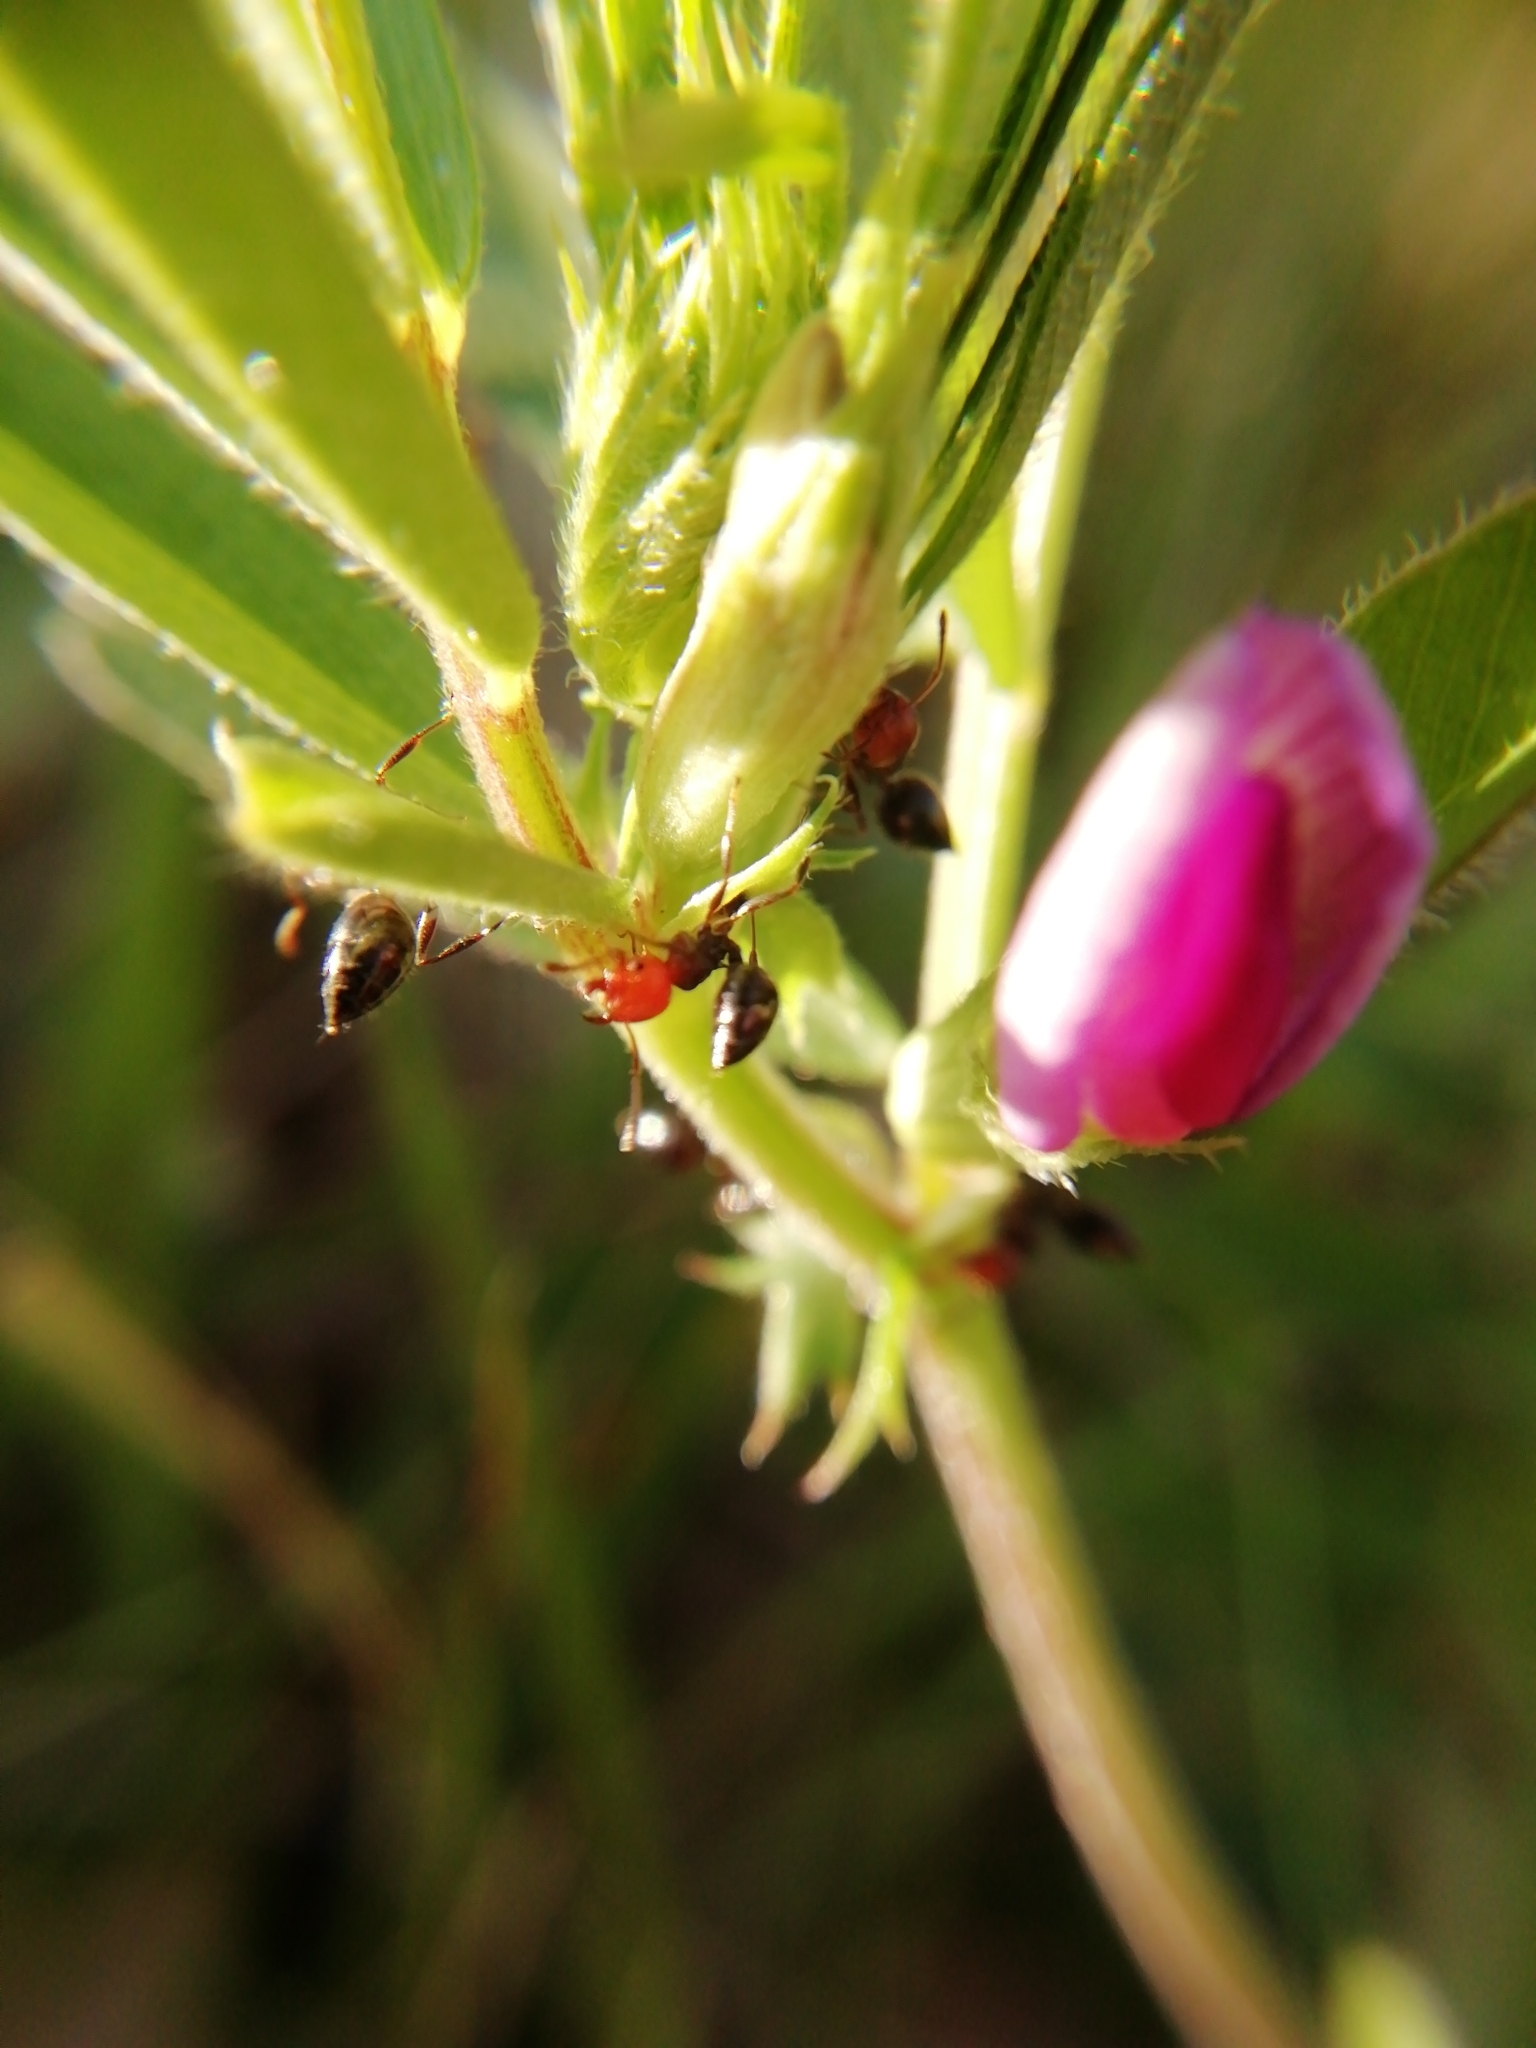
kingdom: Plantae
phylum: Tracheophyta
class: Magnoliopsida
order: Fabales
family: Fabaceae
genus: Vicia
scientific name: Vicia sativa
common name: Garden vetch
